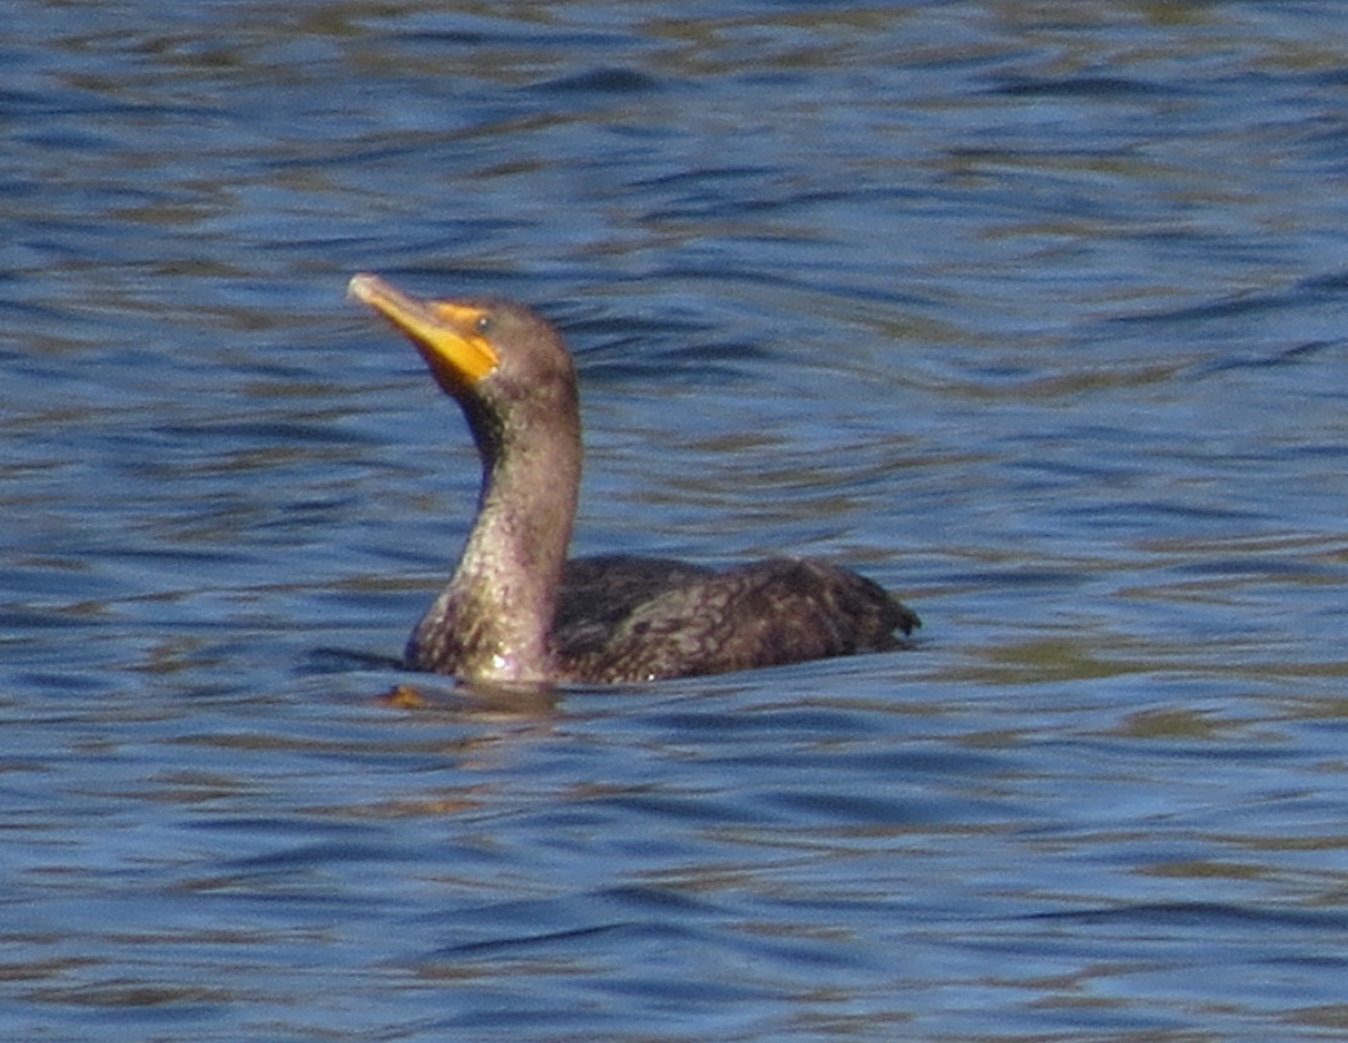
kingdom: Animalia
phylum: Chordata
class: Aves
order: Suliformes
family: Phalacrocoracidae
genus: Phalacrocorax
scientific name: Phalacrocorax auritus
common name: Double-crested cormorant
